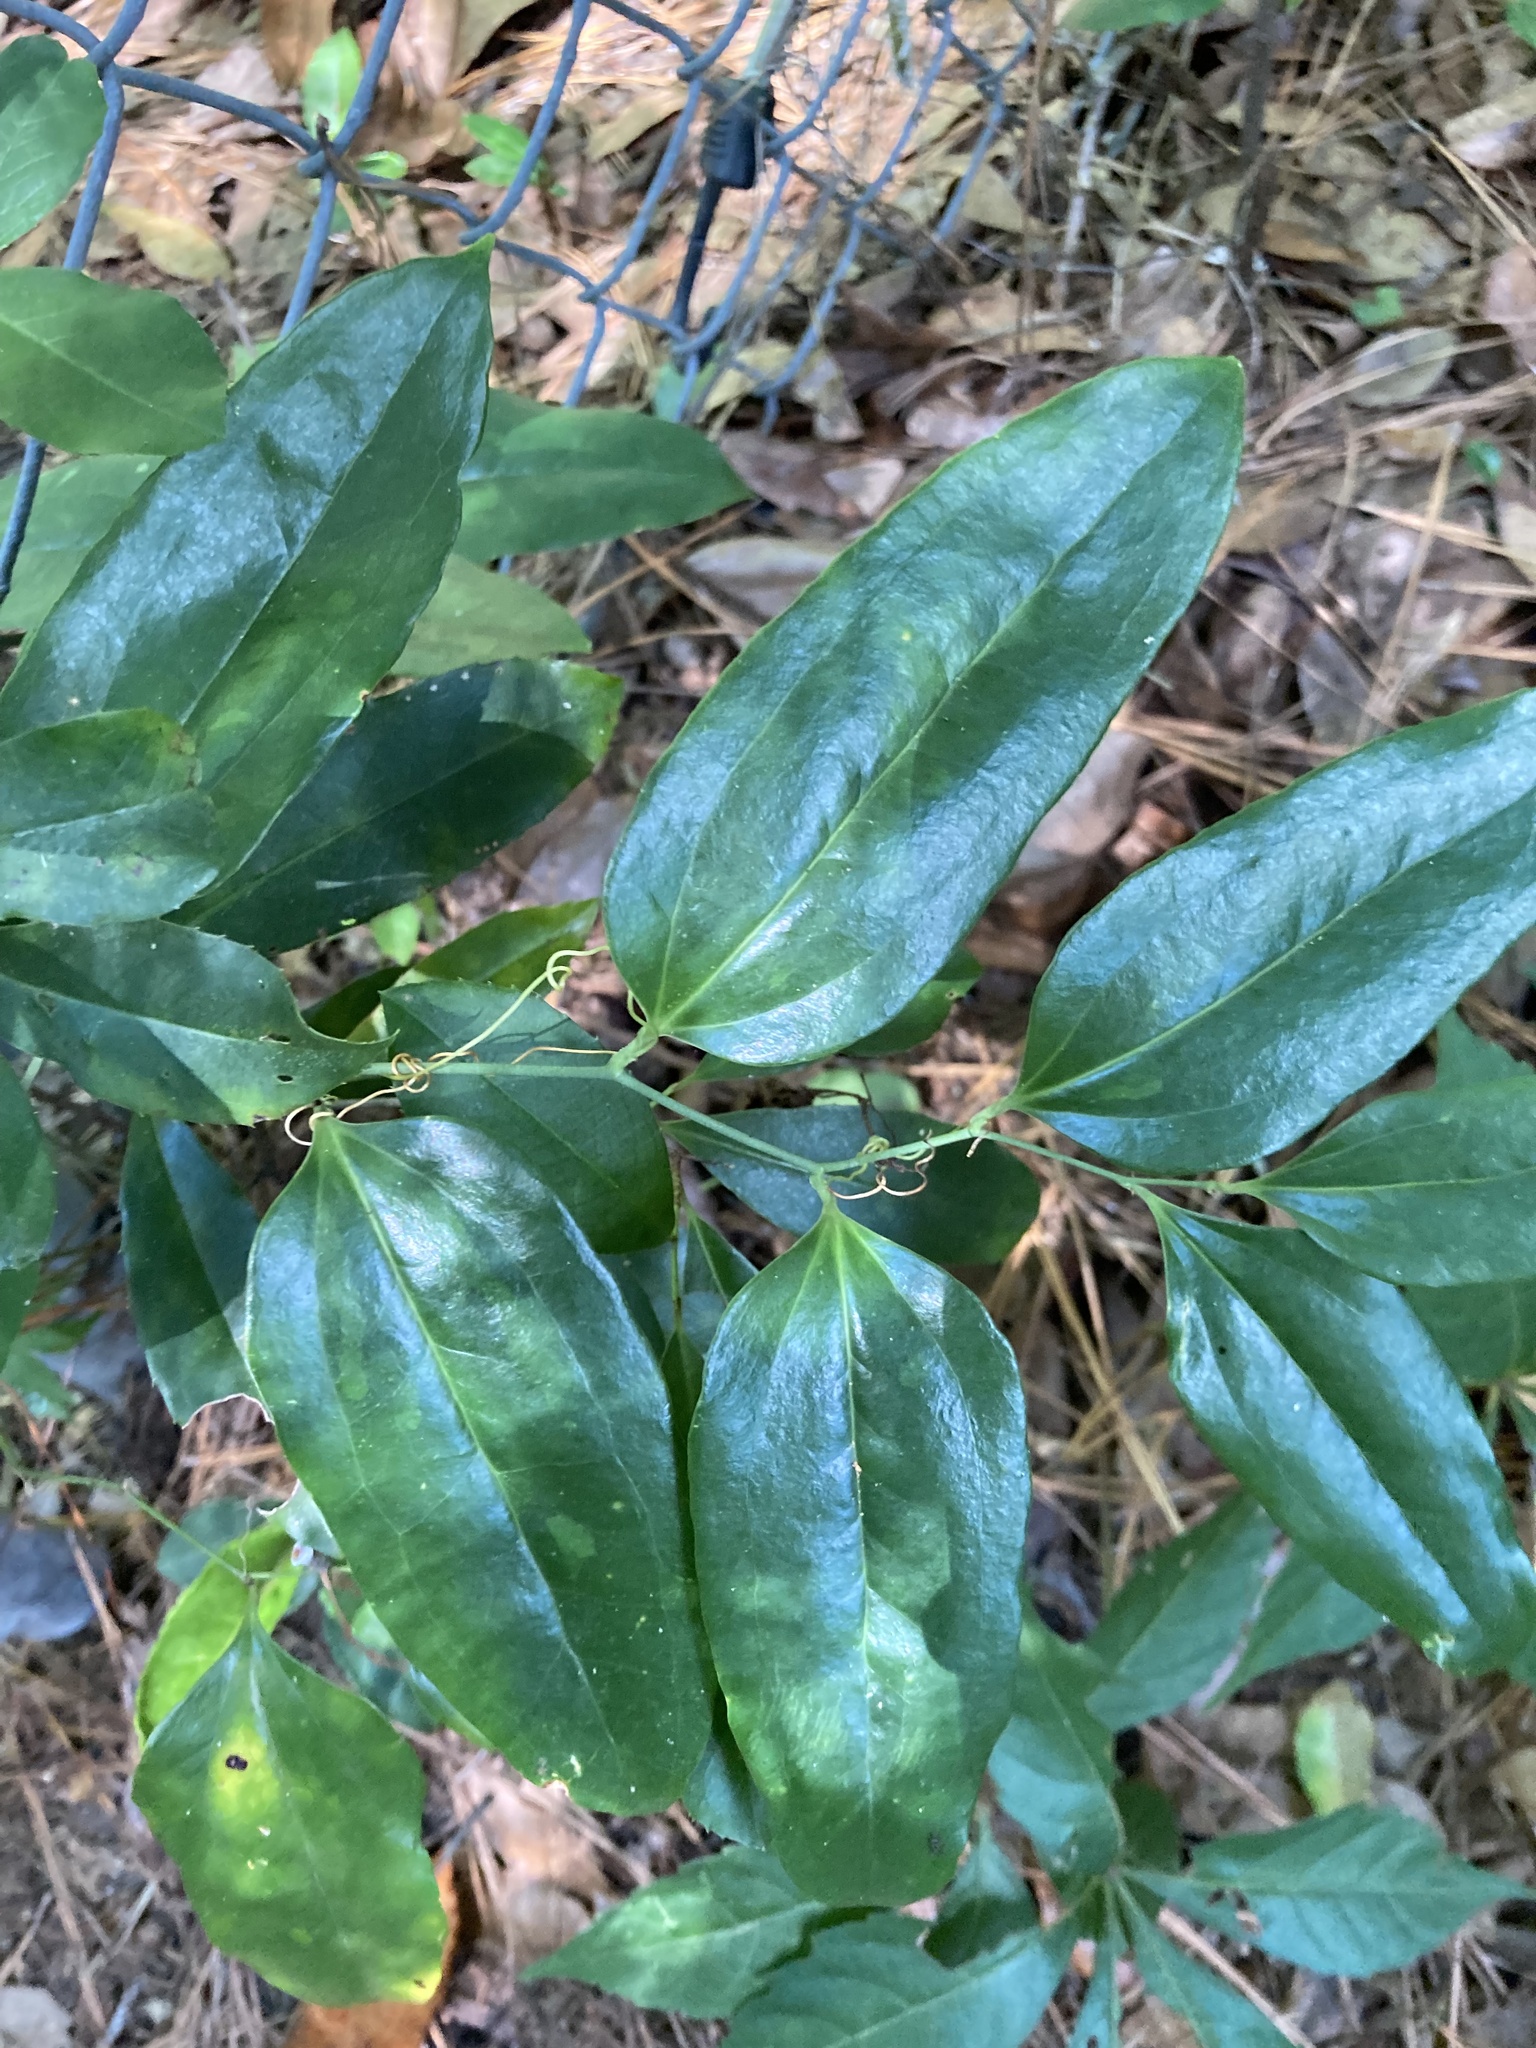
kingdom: Plantae
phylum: Tracheophyta
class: Liliopsida
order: Liliales
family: Smilacaceae
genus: Smilax
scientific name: Smilax maritima
